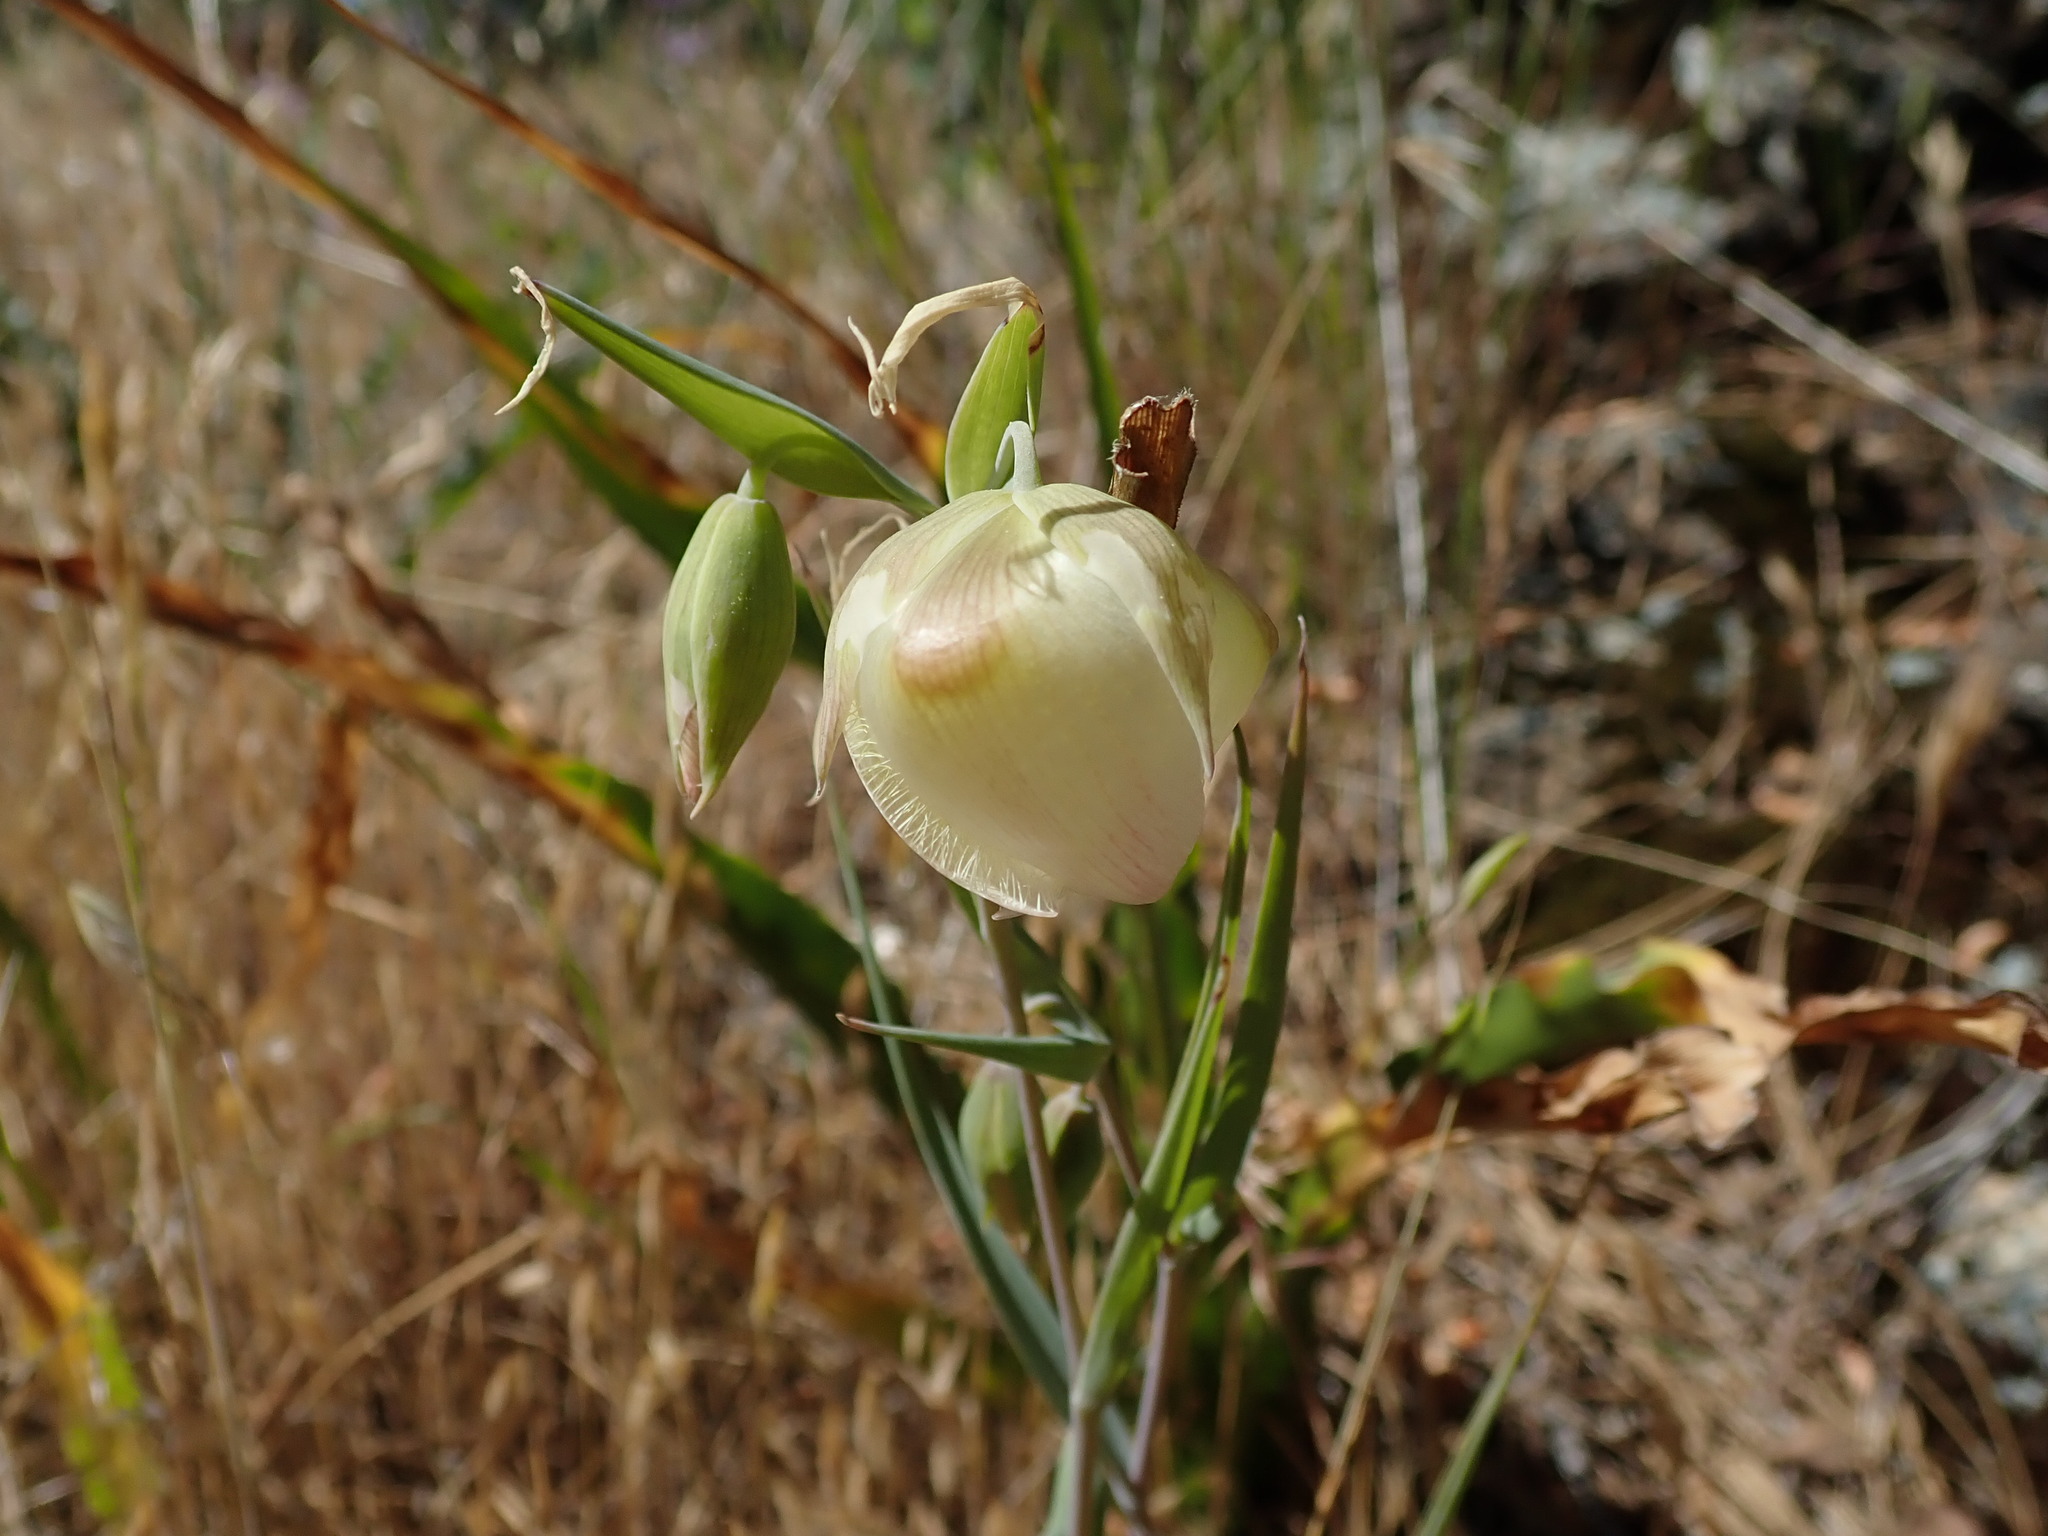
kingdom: Plantae
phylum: Tracheophyta
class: Liliopsida
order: Liliales
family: Liliaceae
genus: Calochortus
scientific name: Calochortus albus
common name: Fairy-lantern
